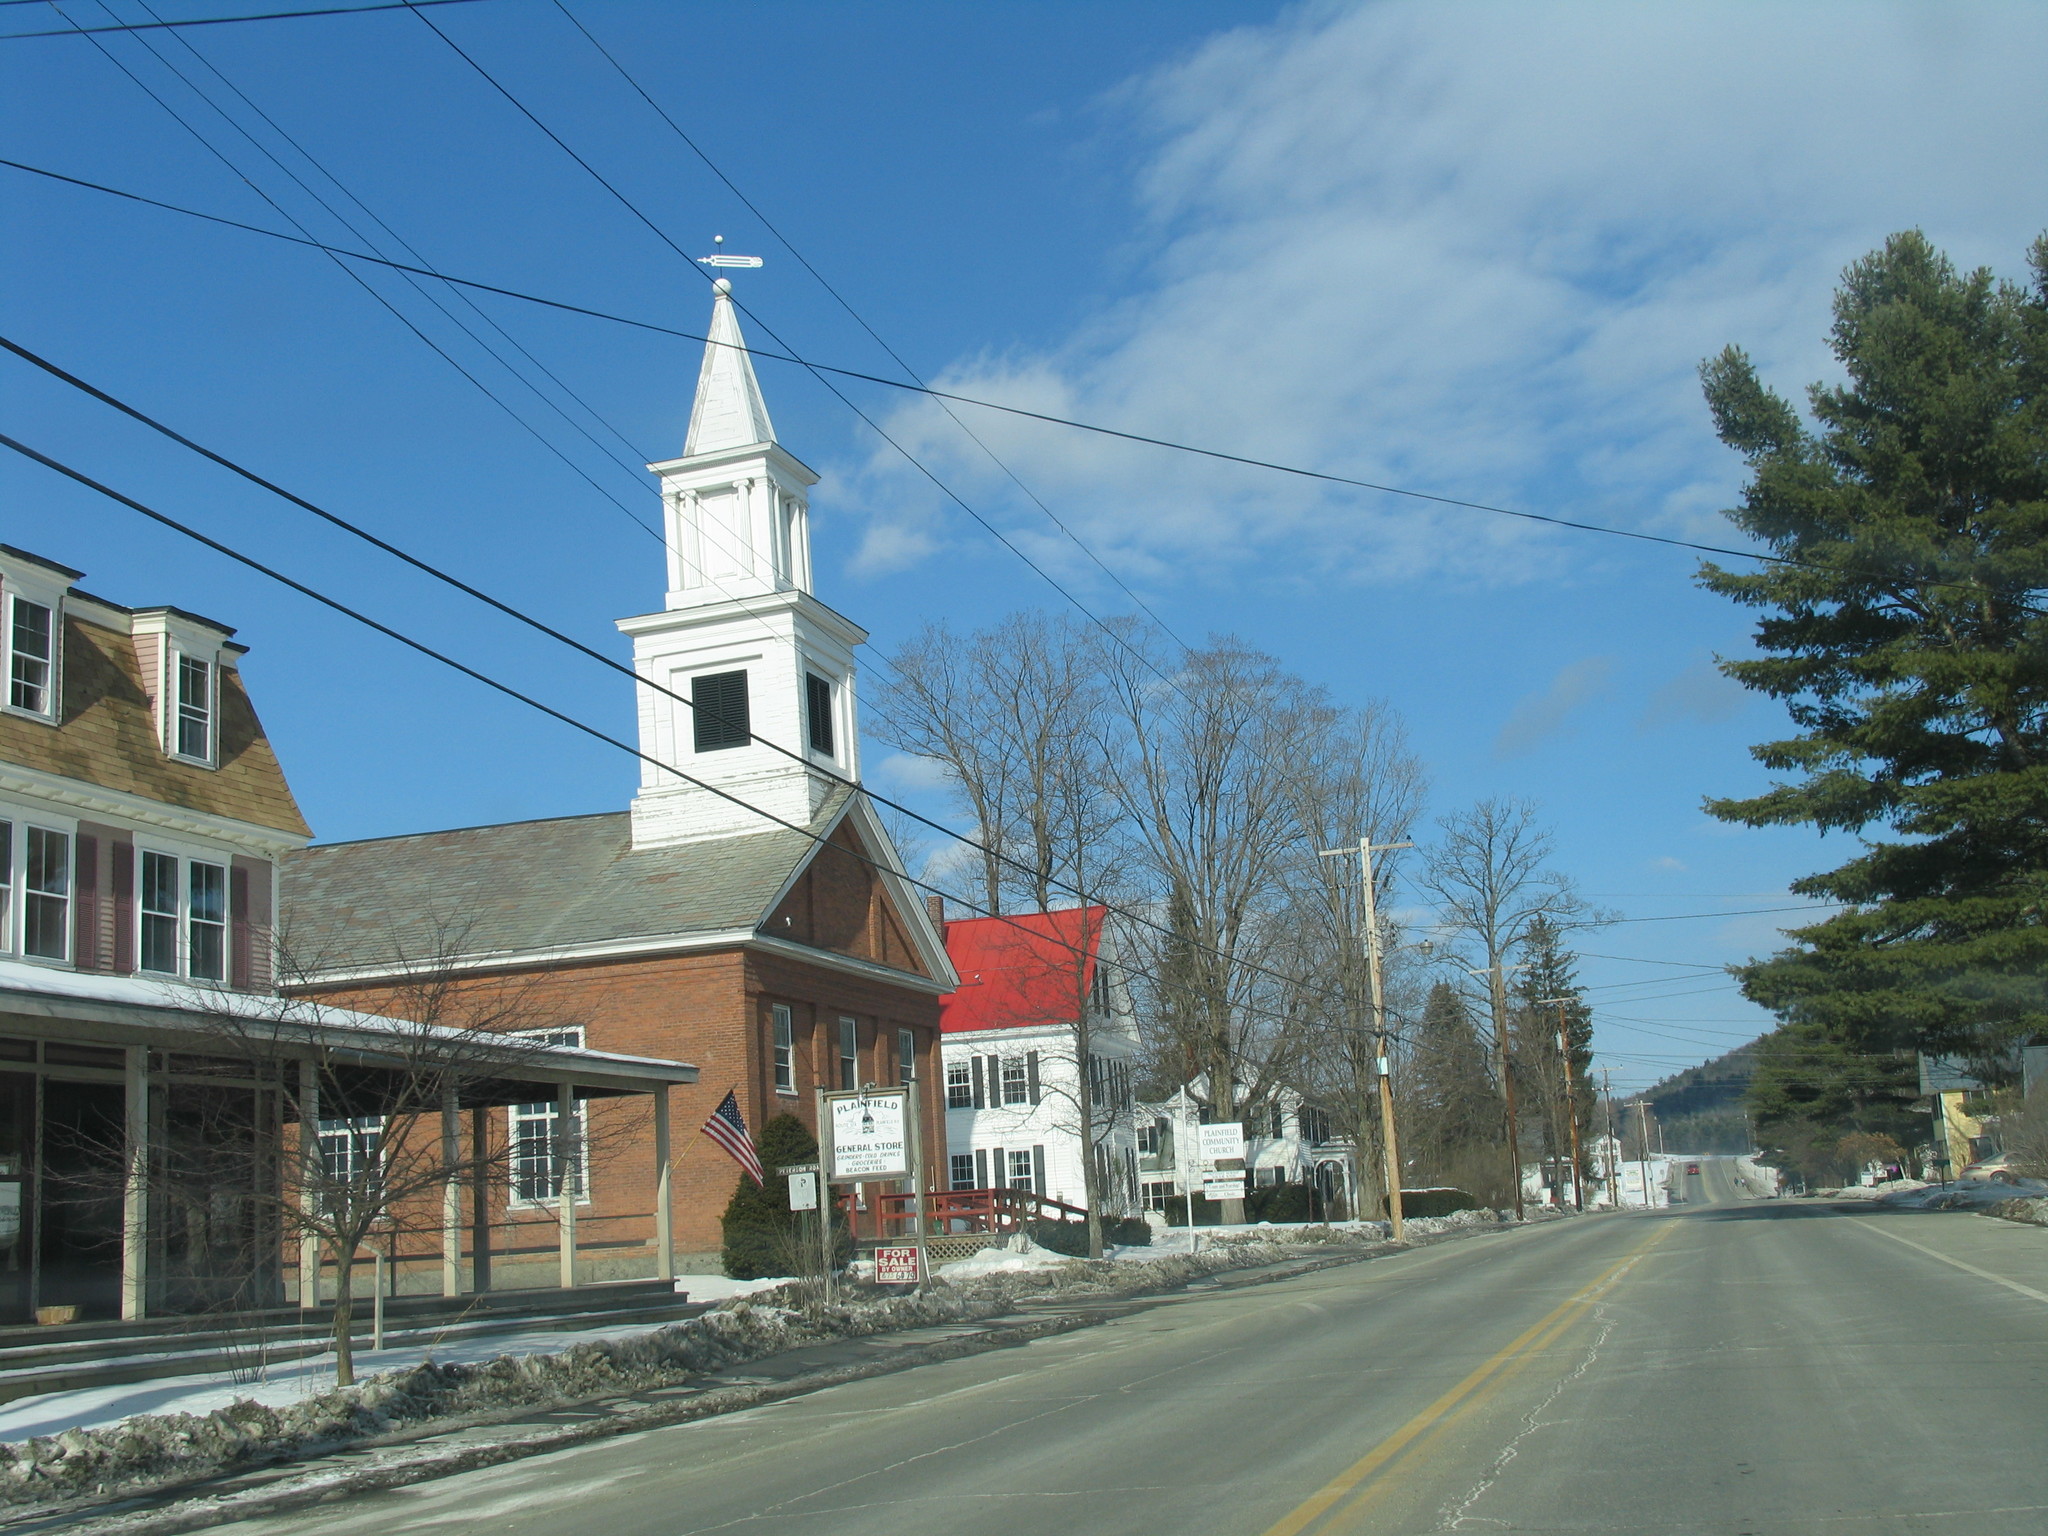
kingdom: Plantae
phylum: Tracheophyta
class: Pinopsida
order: Pinales
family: Pinaceae
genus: Pinus
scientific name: Pinus strobus
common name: Weymouth pine
